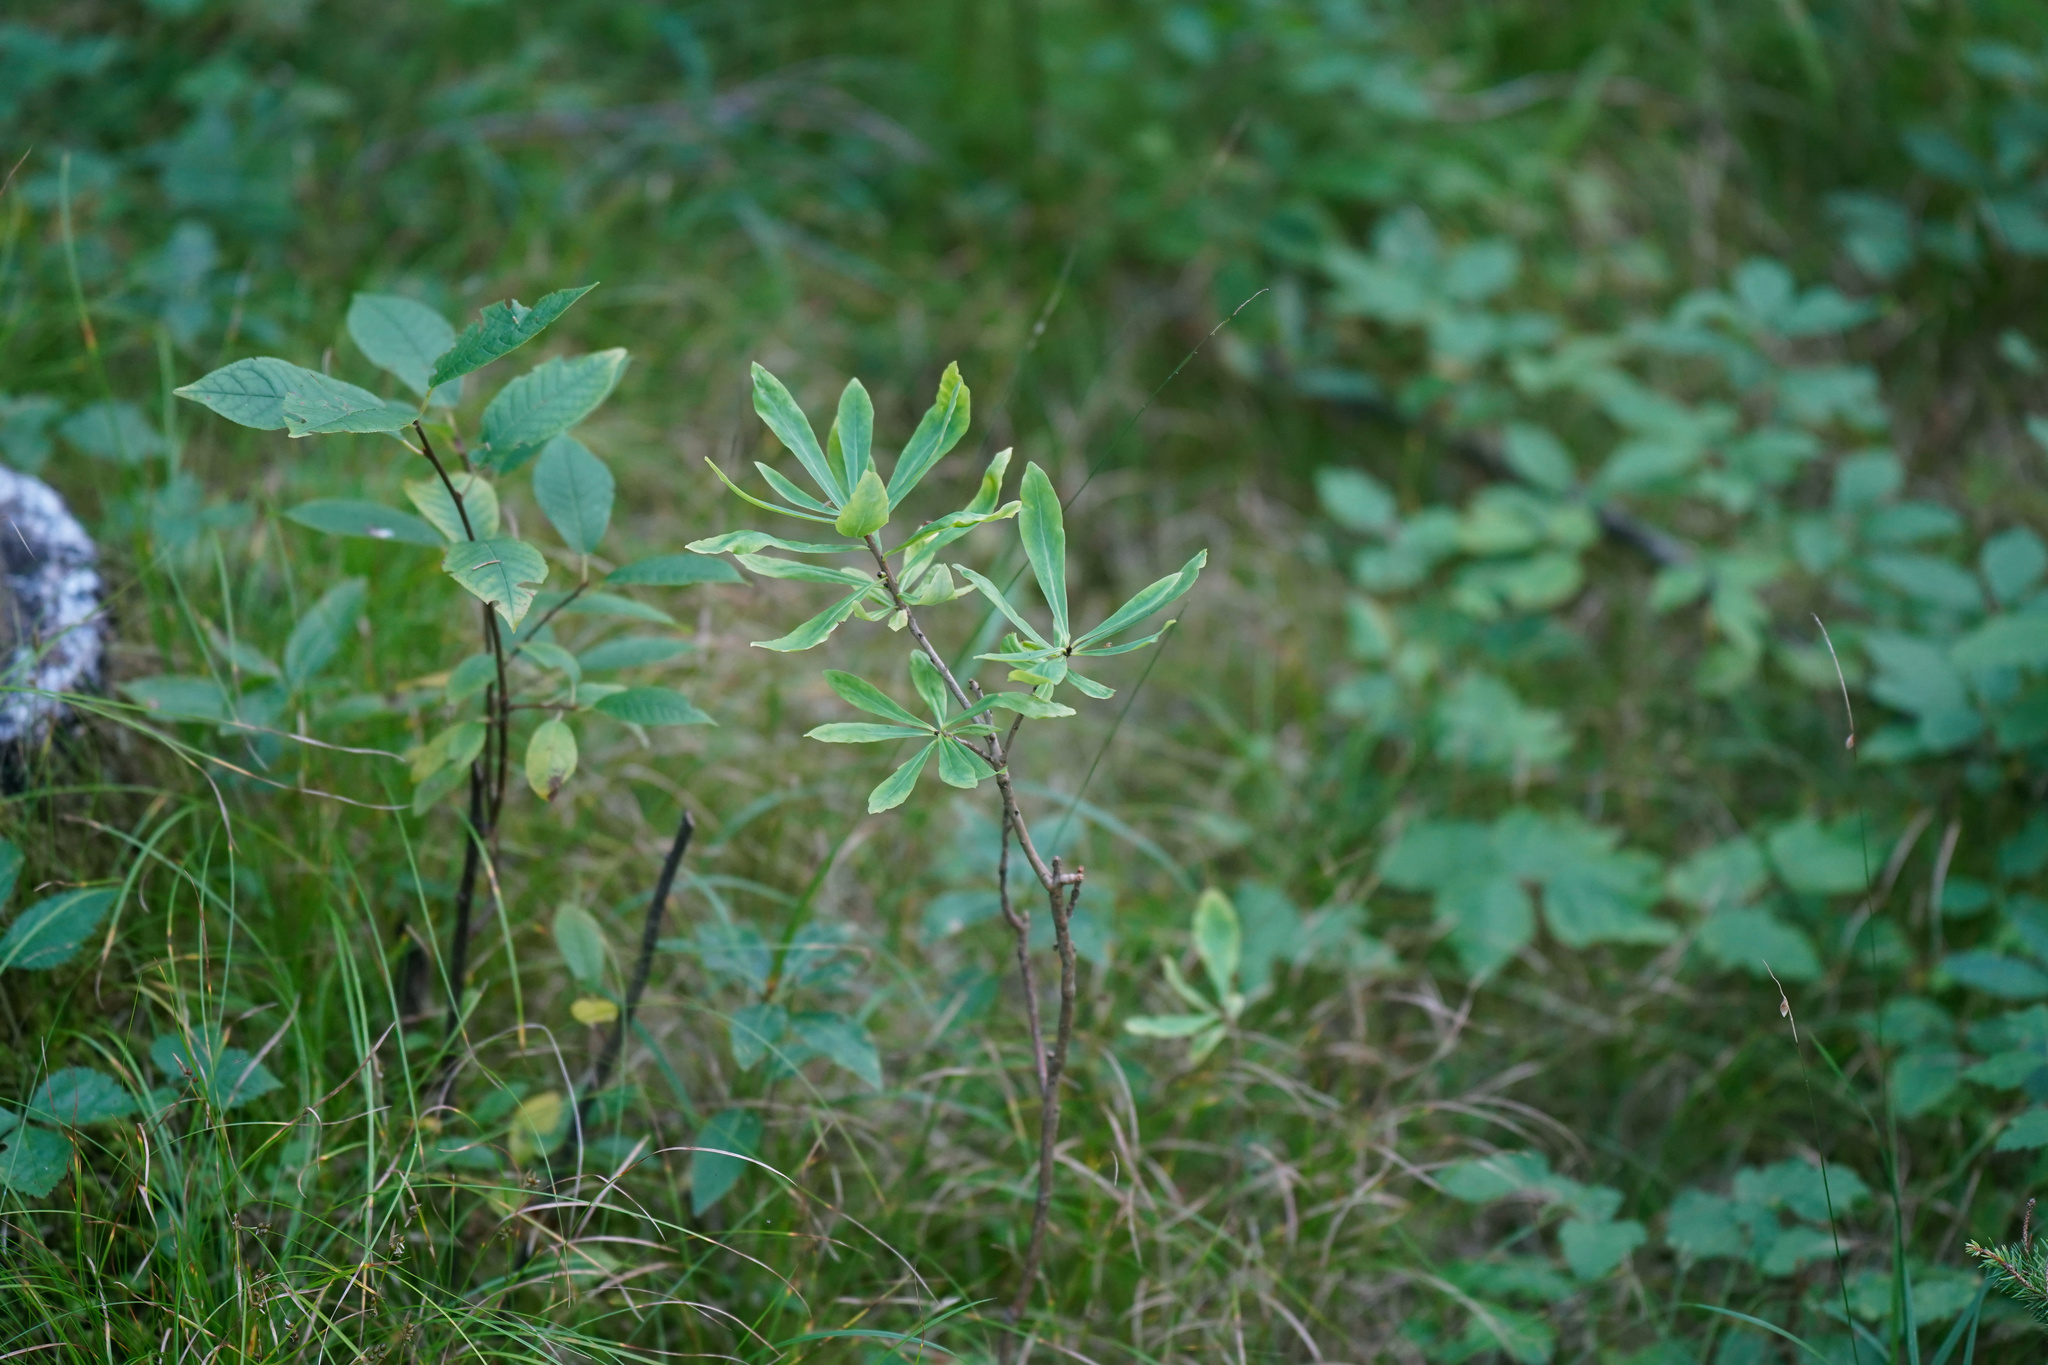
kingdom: Plantae
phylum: Tracheophyta
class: Magnoliopsida
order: Malvales
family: Thymelaeaceae
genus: Daphne
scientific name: Daphne mezereum
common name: Mezereon
